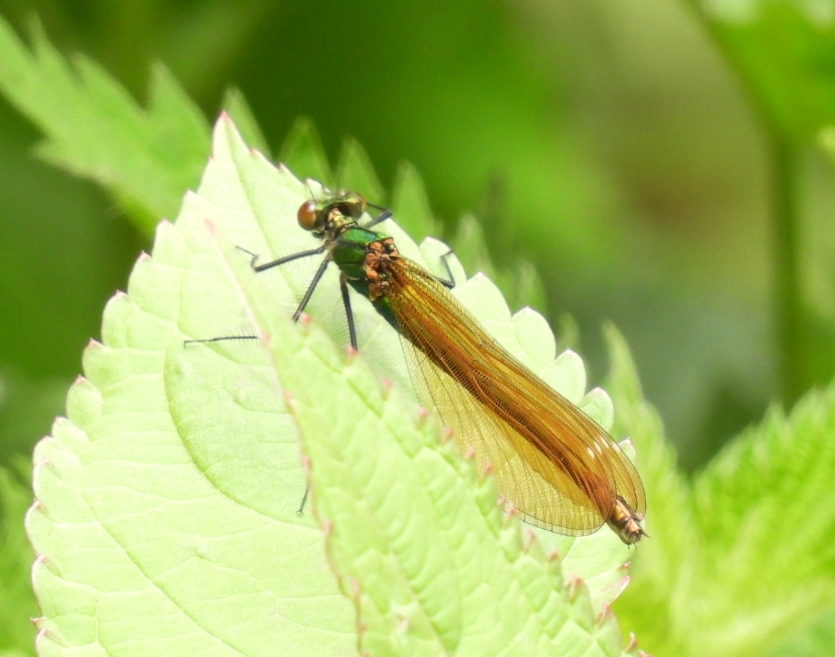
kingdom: Animalia
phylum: Arthropoda
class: Insecta
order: Odonata
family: Calopterygidae
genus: Calopteryx
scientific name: Calopteryx virgo
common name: Beautiful demoiselle
